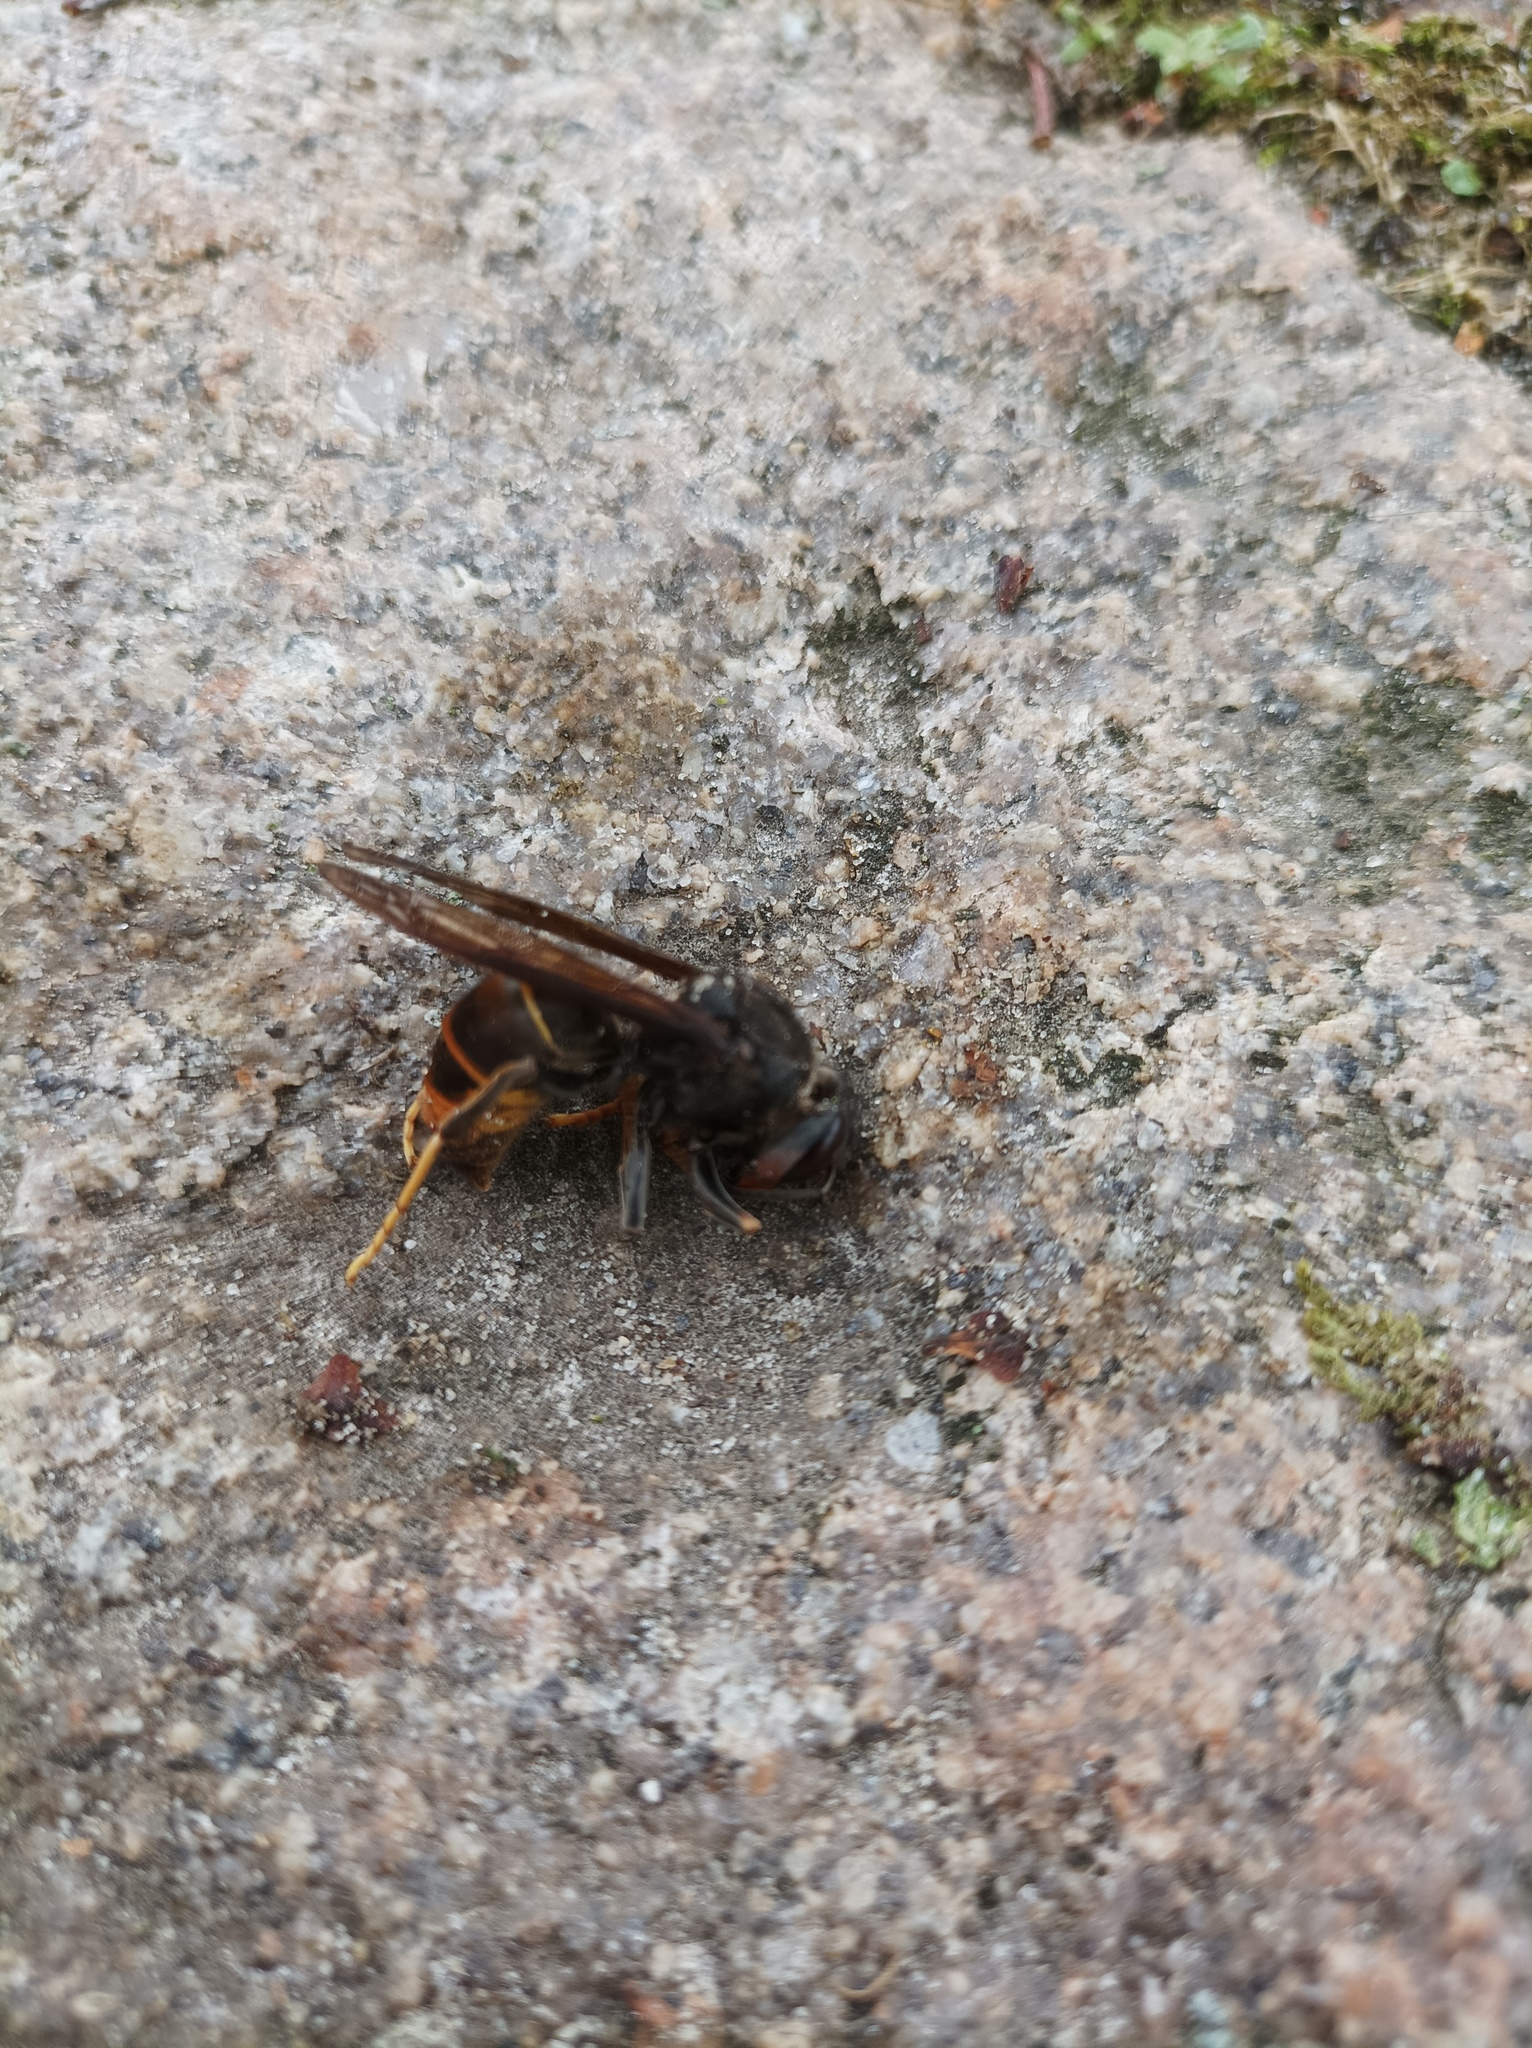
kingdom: Animalia
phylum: Arthropoda
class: Insecta
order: Hymenoptera
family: Vespidae
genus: Vespa
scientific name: Vespa velutina
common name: Asian hornet
